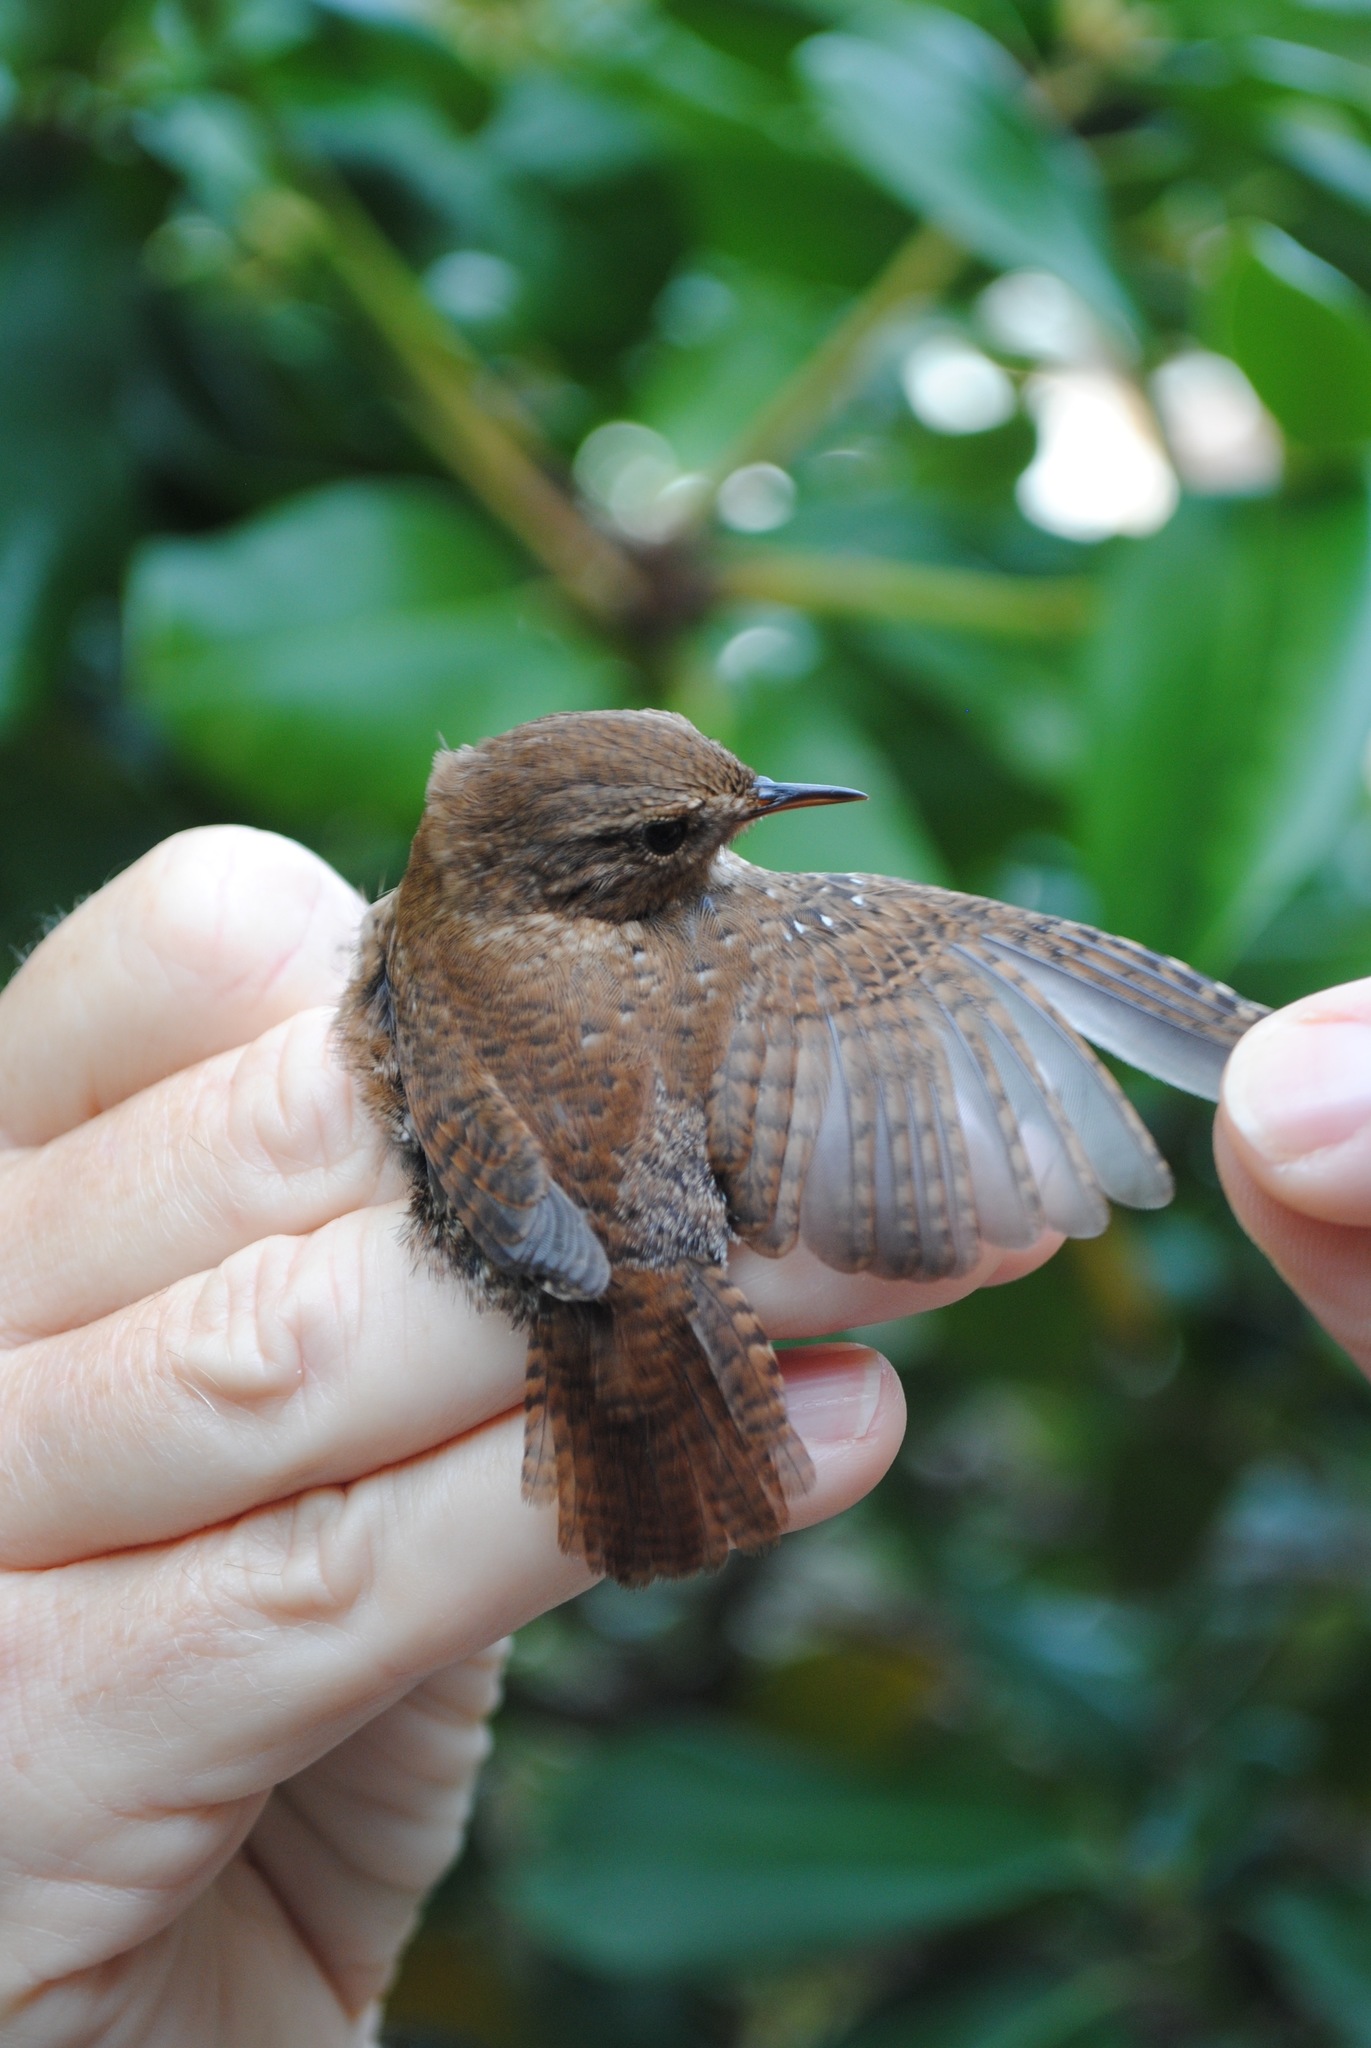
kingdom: Animalia
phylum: Chordata
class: Aves
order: Passeriformes
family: Troglodytidae
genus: Troglodytes
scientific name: Troglodytes hiemalis
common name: Winter wren
